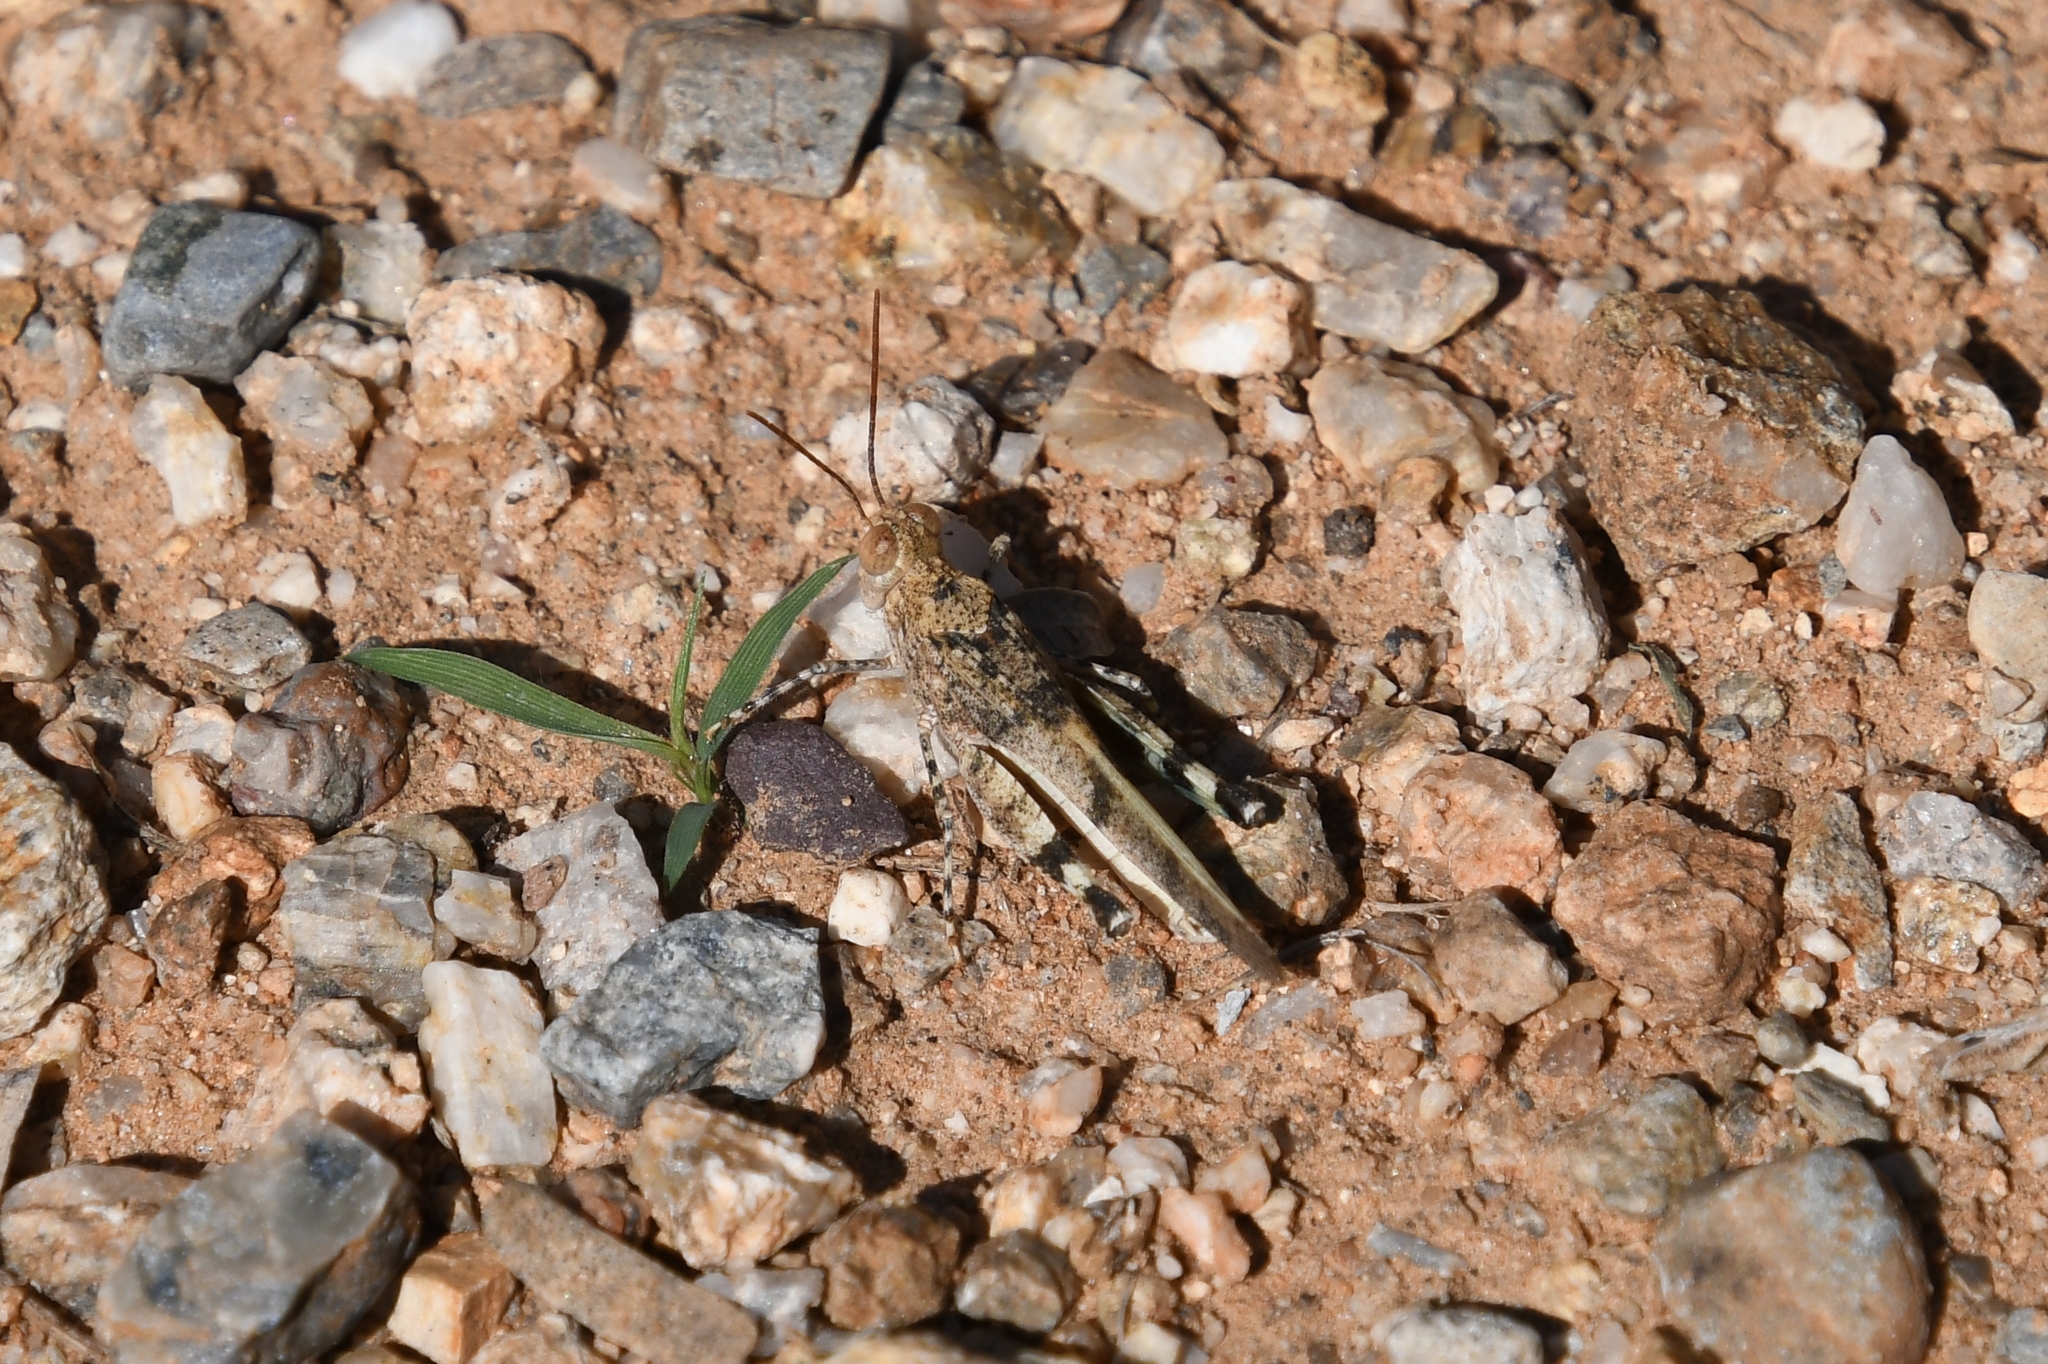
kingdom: Animalia
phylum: Arthropoda
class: Insecta
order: Orthoptera
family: Acrididae
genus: Lactista
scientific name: Lactista azteca
